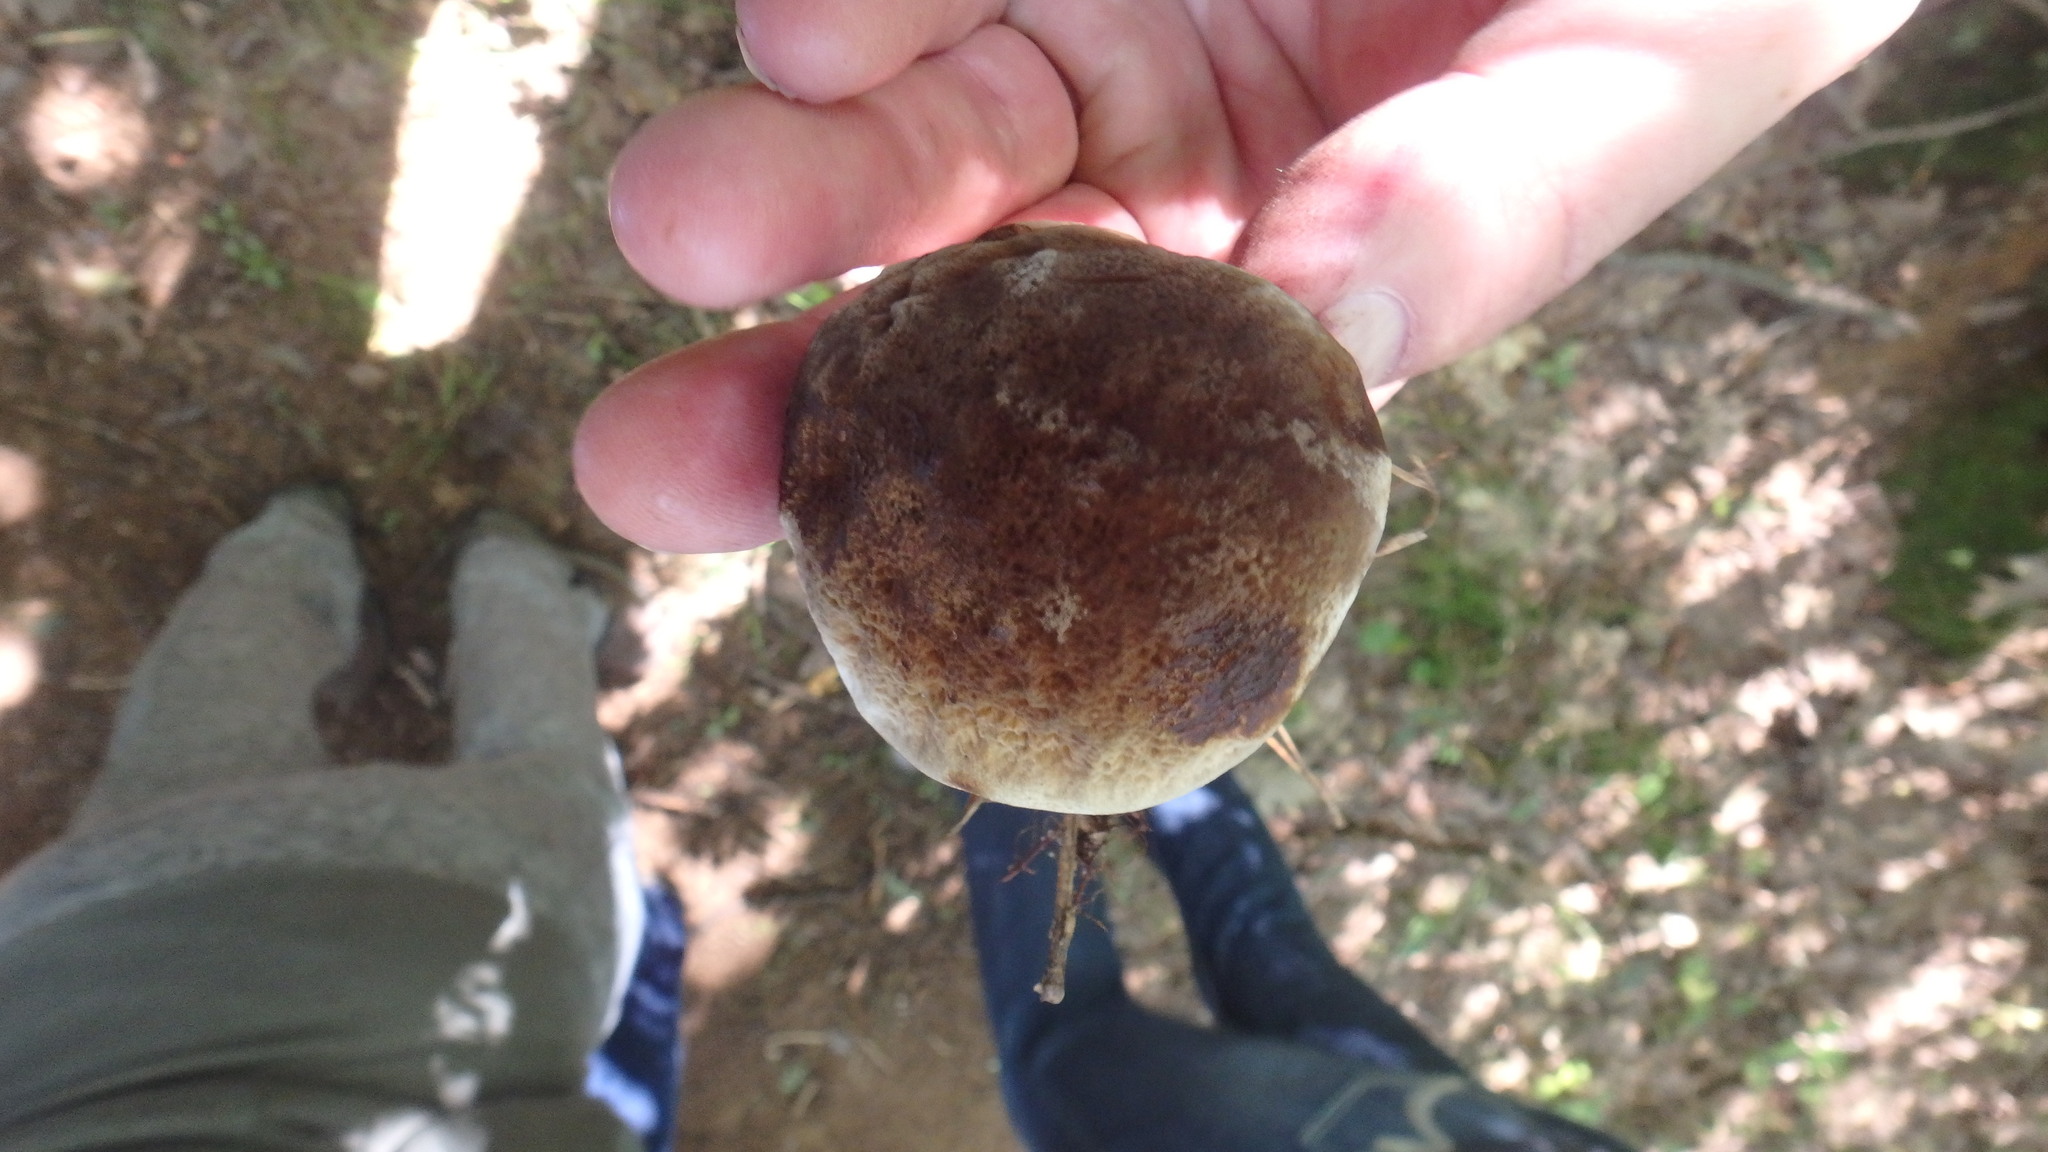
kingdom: Fungi
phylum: Basidiomycota
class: Agaricomycetes
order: Hymenochaetales
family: Hymenochaetaceae
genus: Coltricia
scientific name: Coltricia montagnei
